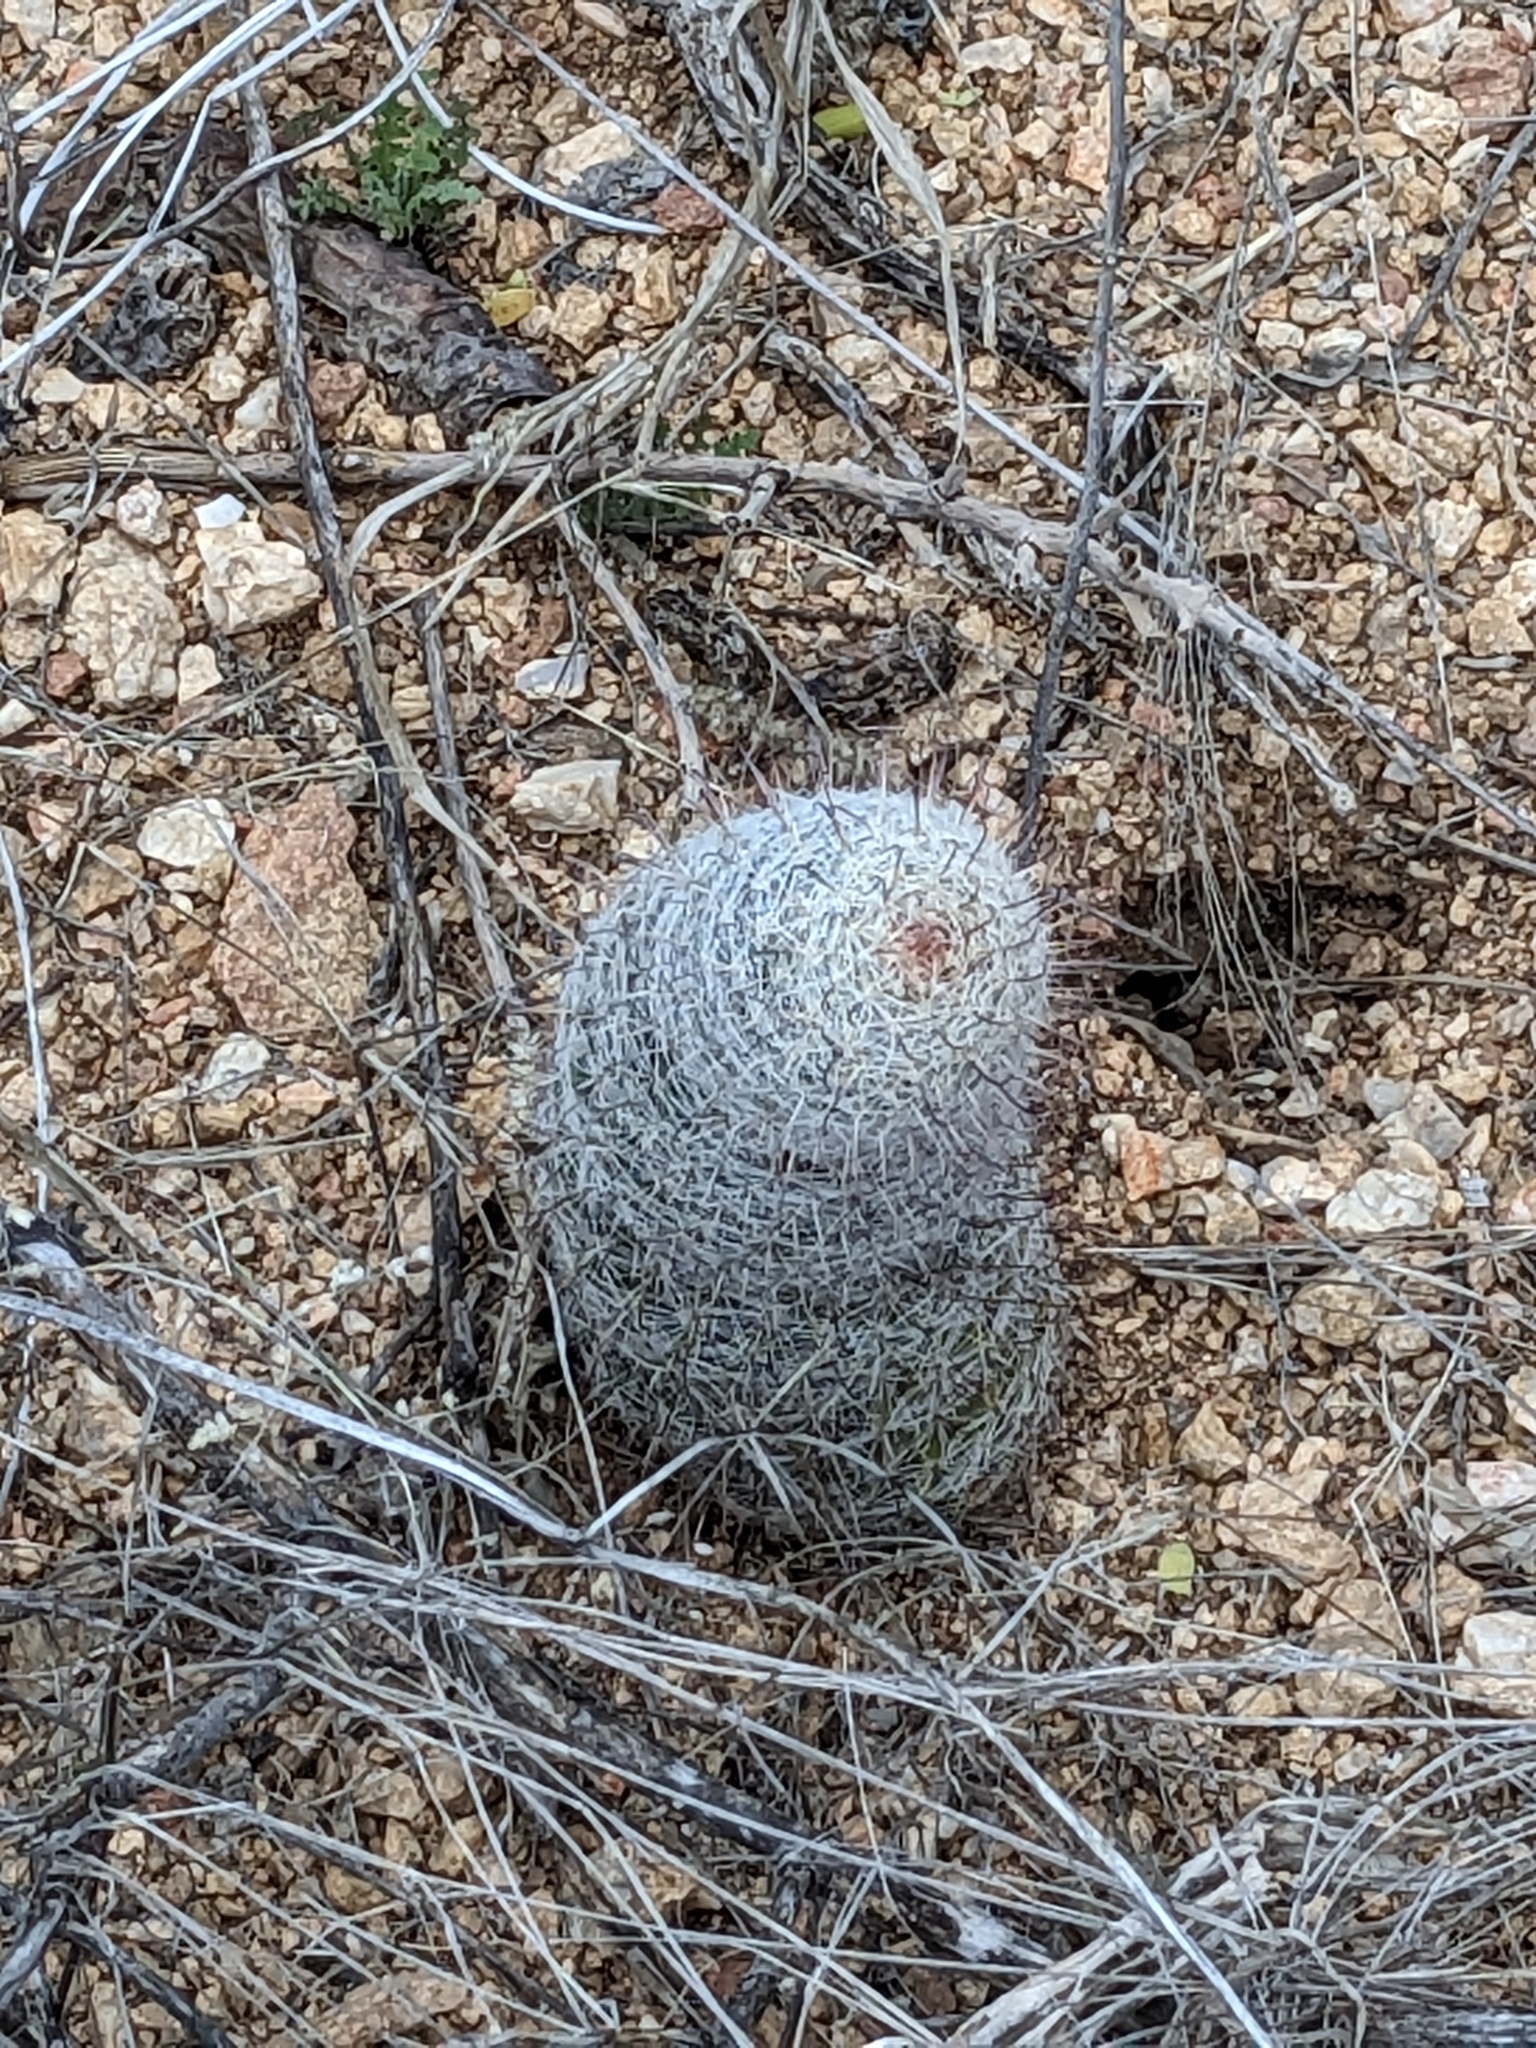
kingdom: Plantae
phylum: Tracheophyta
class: Magnoliopsida
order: Caryophyllales
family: Cactaceae
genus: Cochemiea
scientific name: Cochemiea grahamii
